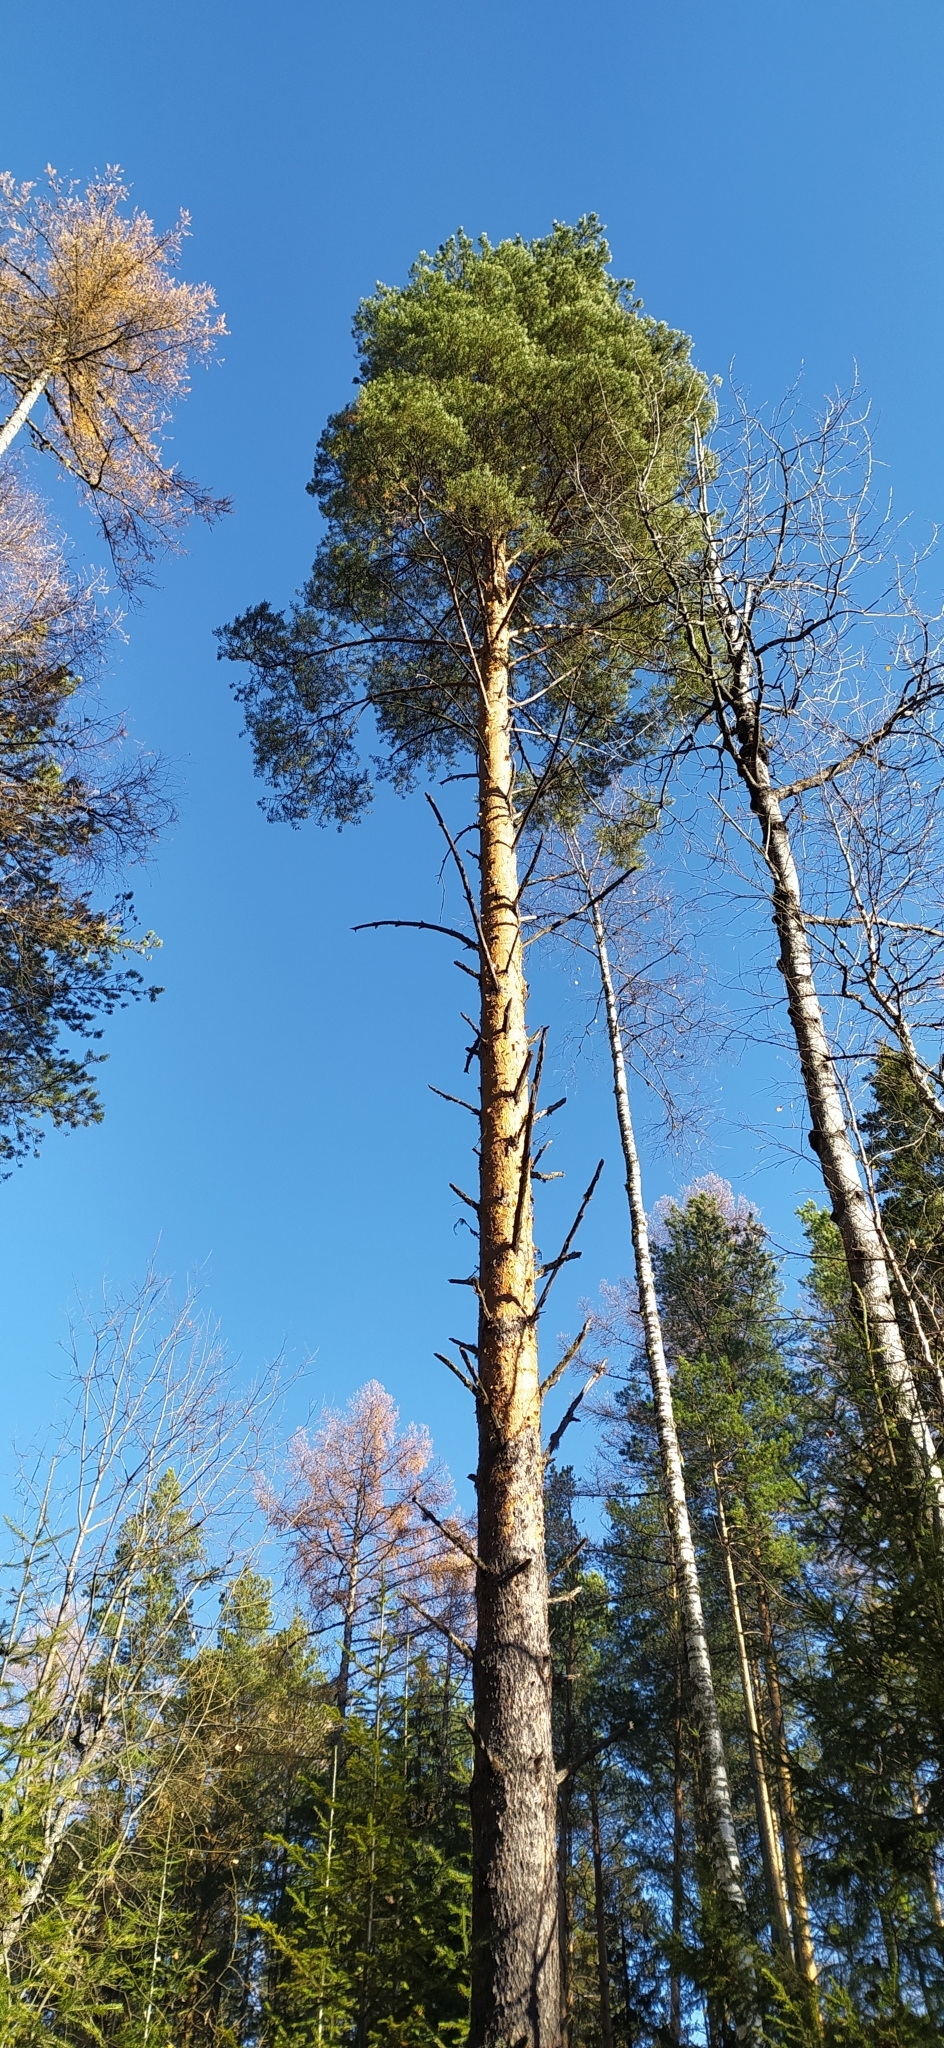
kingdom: Plantae
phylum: Tracheophyta
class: Pinopsida
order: Pinales
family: Pinaceae
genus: Pinus
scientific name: Pinus sylvestris
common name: Scots pine
